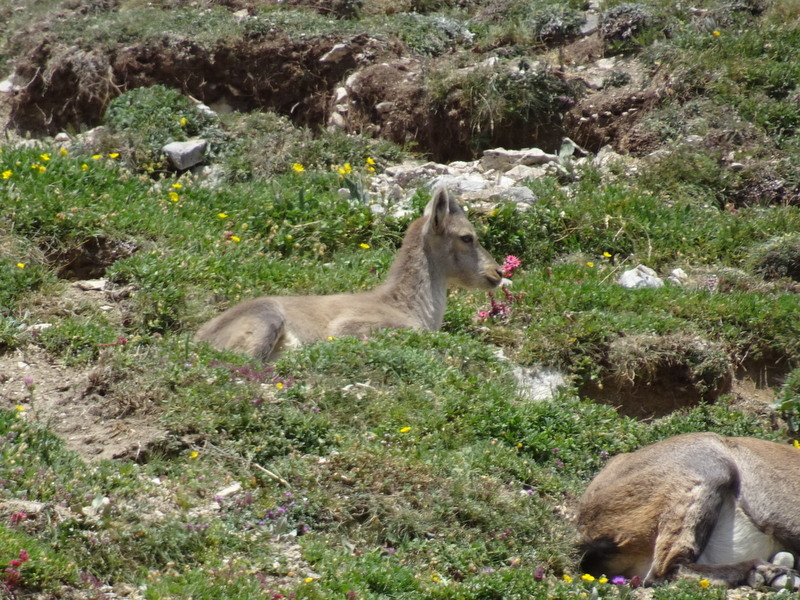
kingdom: Animalia
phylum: Chordata
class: Mammalia
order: Artiodactyla
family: Bovidae
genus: Capra
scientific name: Capra ibex
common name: Alpine ibex
